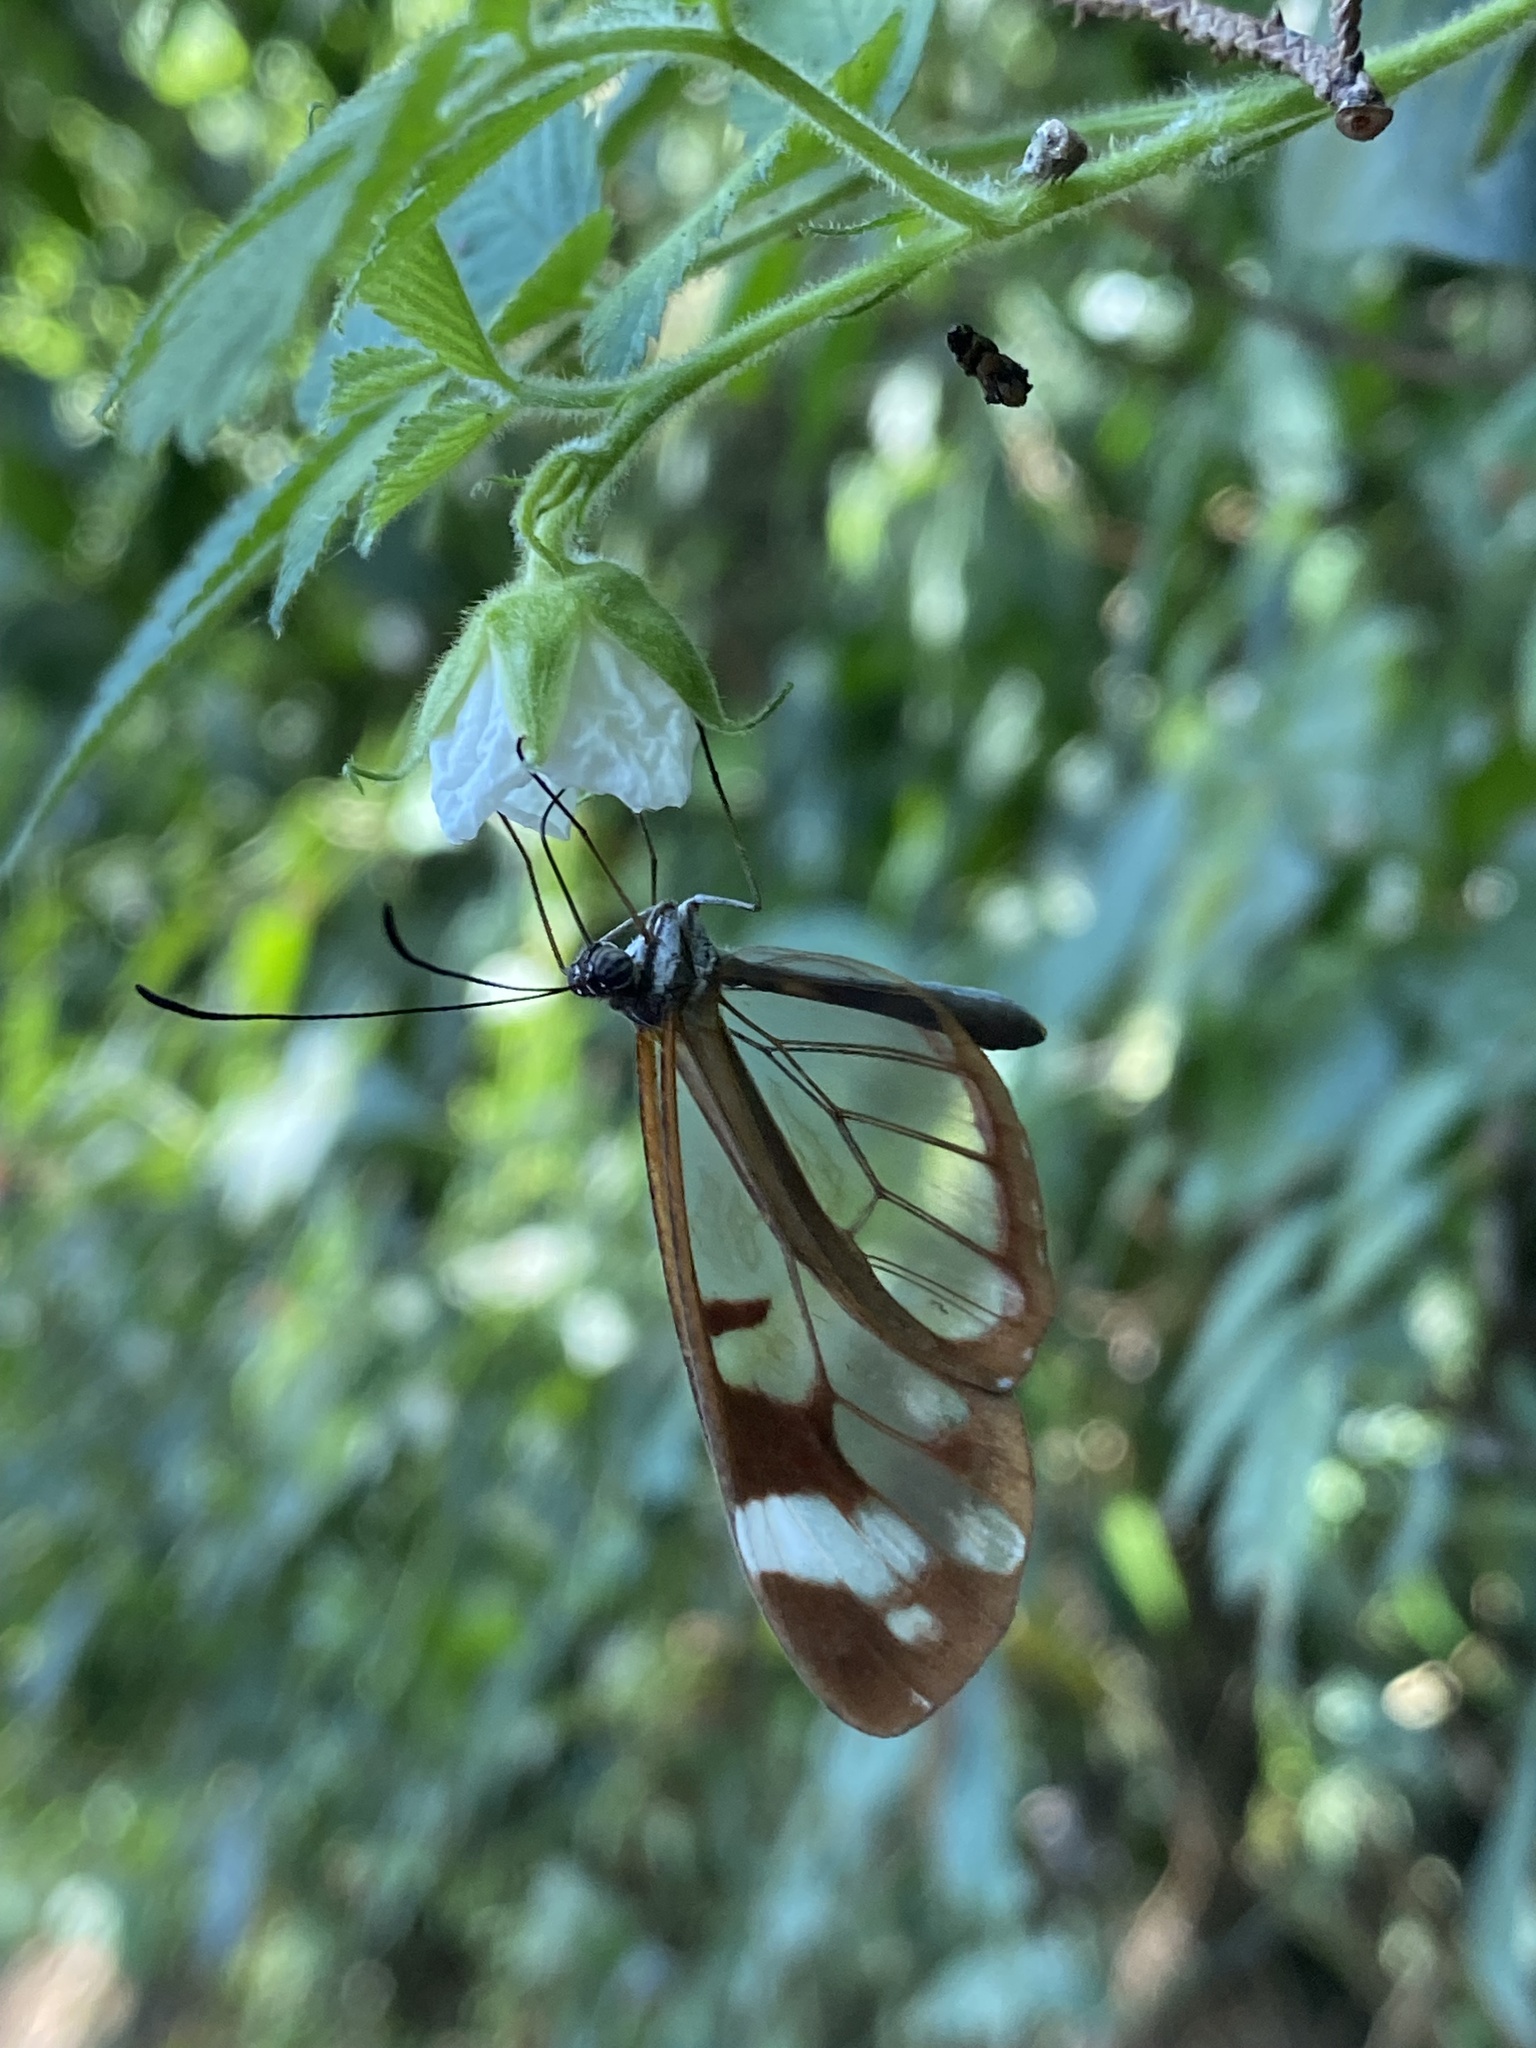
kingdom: Animalia
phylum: Arthropoda
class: Insecta
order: Lepidoptera
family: Nymphalidae
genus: Oleria
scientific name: Oleria zea
